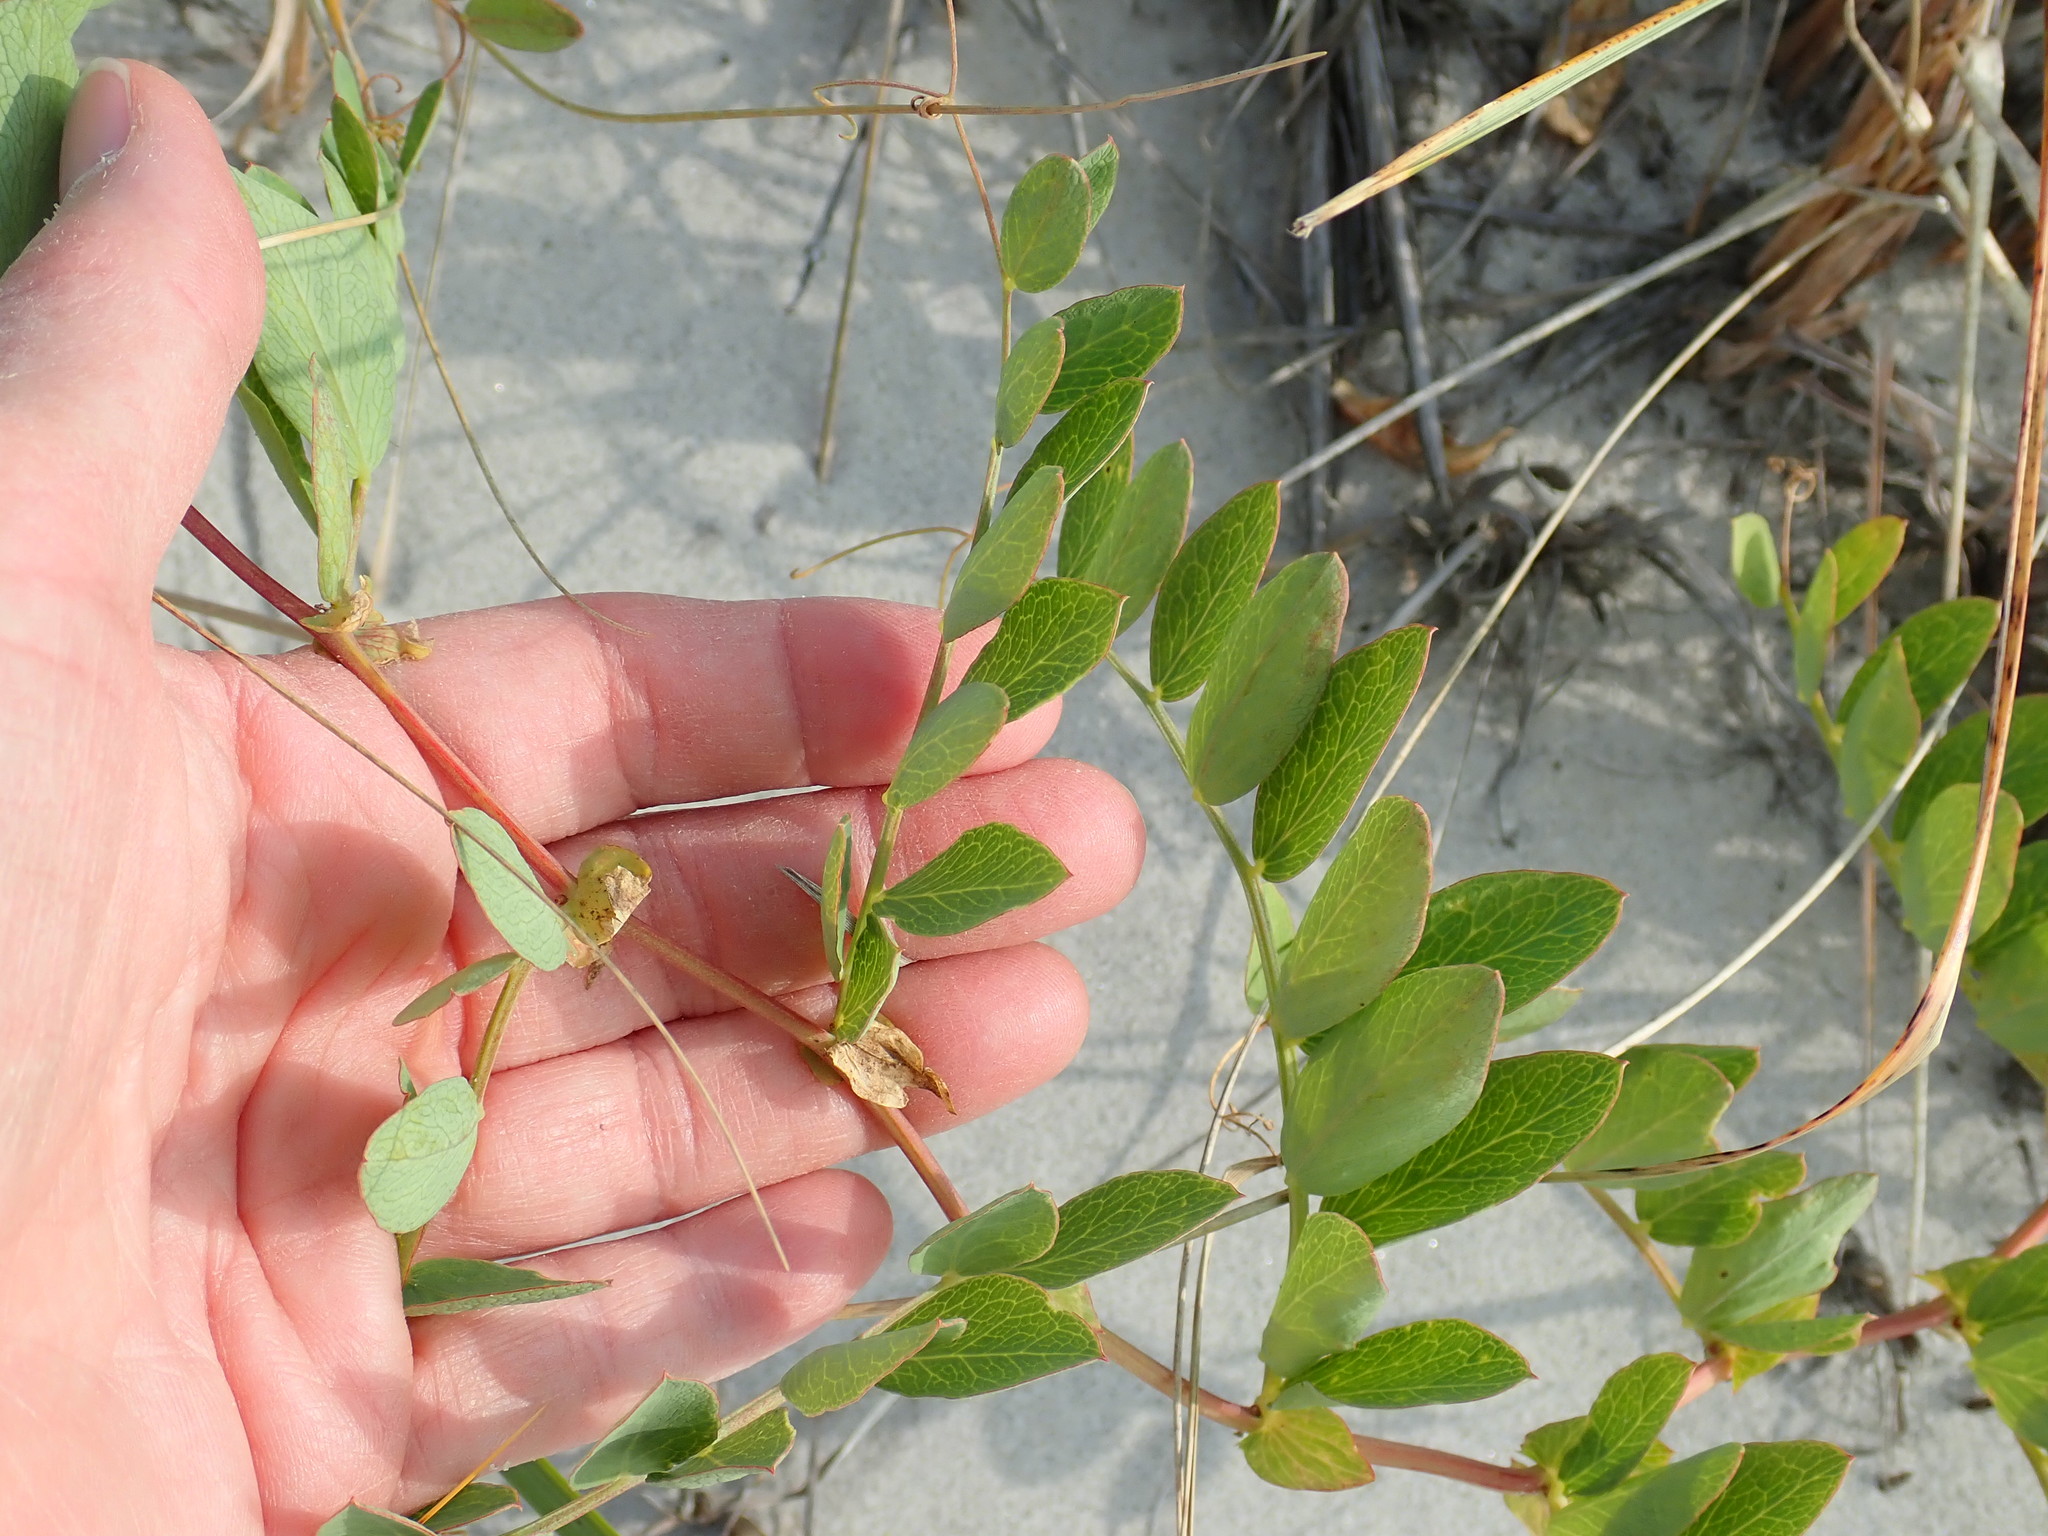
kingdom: Plantae
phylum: Tracheophyta
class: Magnoliopsida
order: Fabales
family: Fabaceae
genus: Lathyrus
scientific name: Lathyrus japonicus
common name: Sea pea
